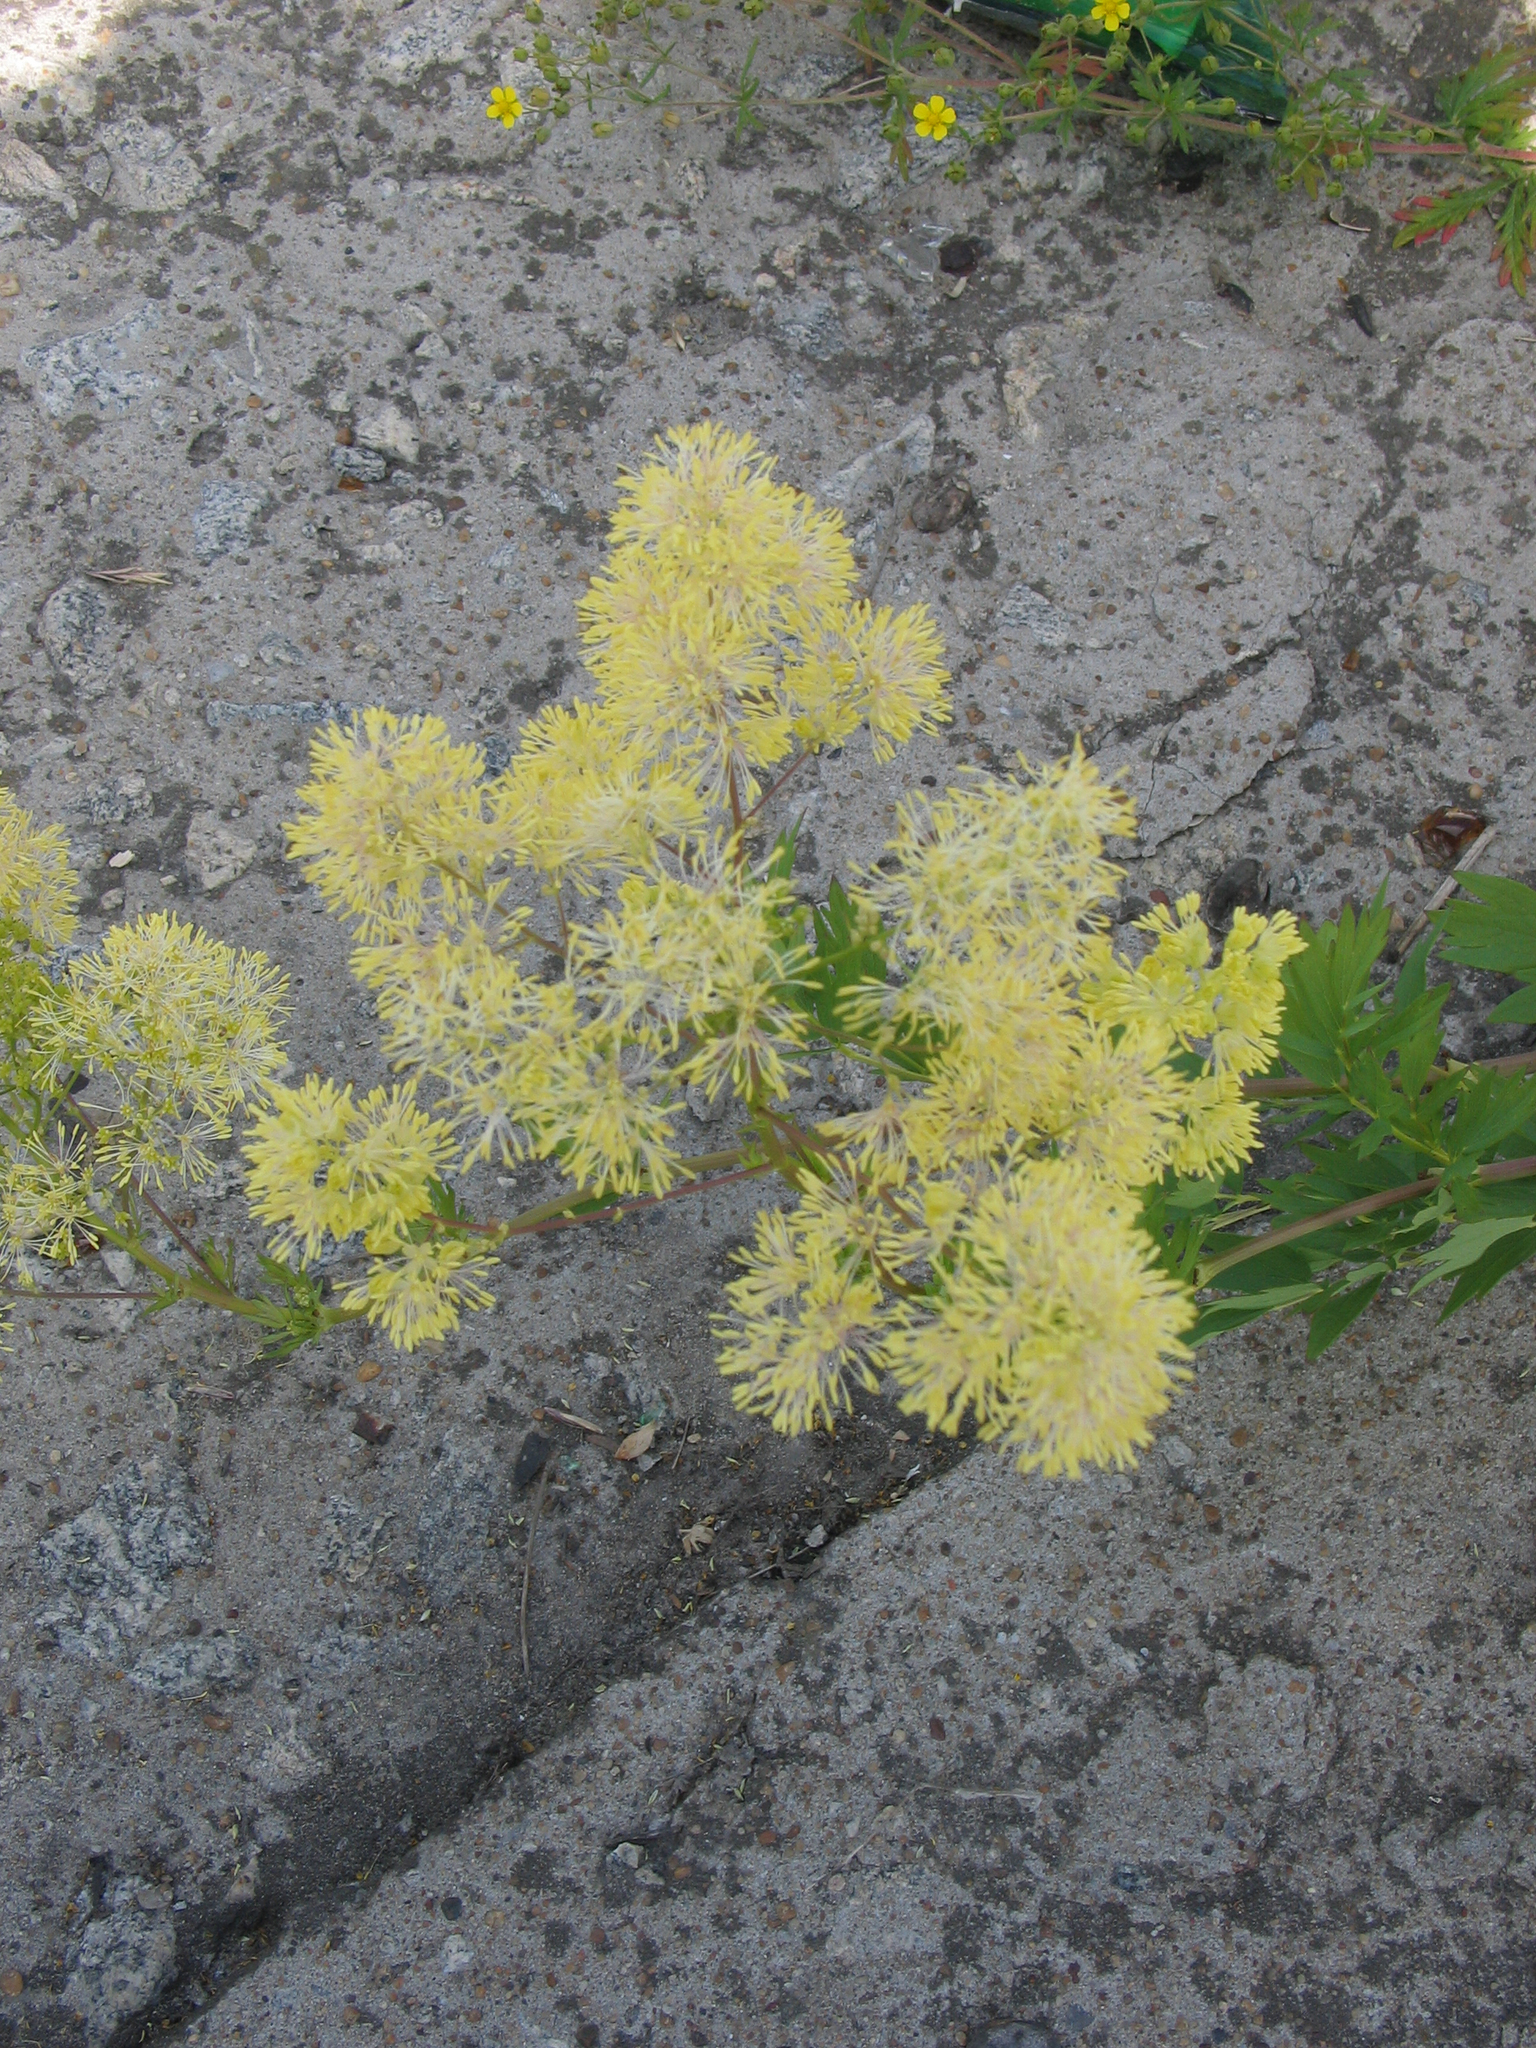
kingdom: Plantae
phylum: Tracheophyta
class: Magnoliopsida
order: Ranunculales
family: Ranunculaceae
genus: Thalictrum
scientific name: Thalictrum flavum
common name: Common meadow-rue
